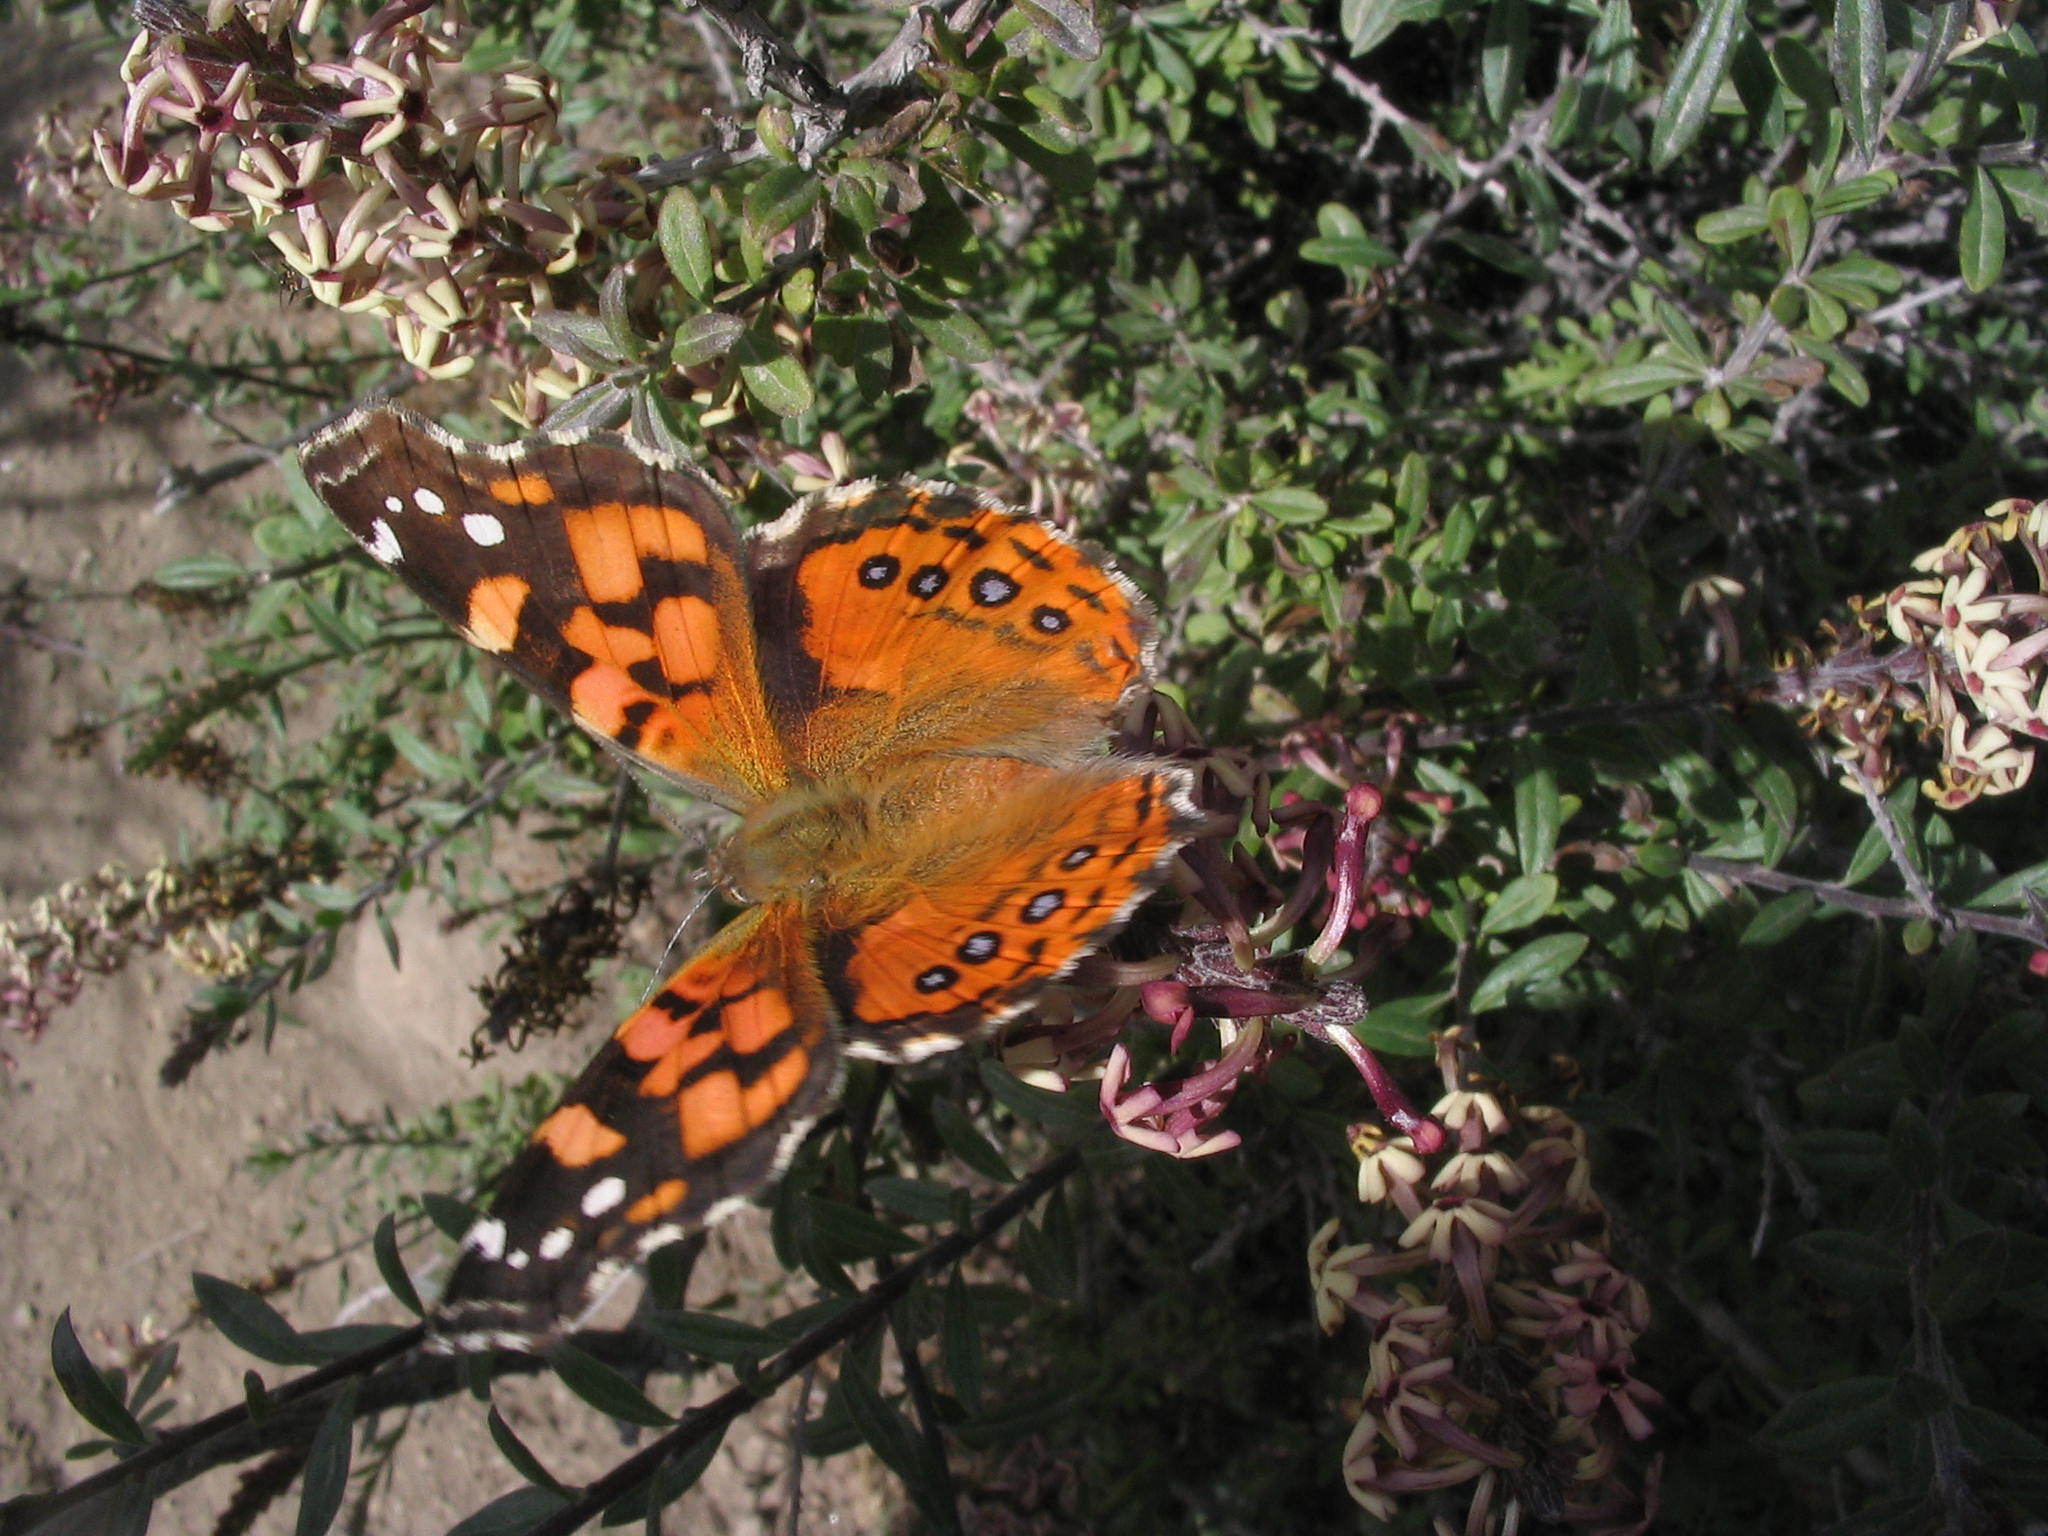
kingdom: Animalia
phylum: Arthropoda
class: Insecta
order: Lepidoptera
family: Nymphalidae
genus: Vanessa
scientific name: Vanessa carye
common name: Subtropical lady
